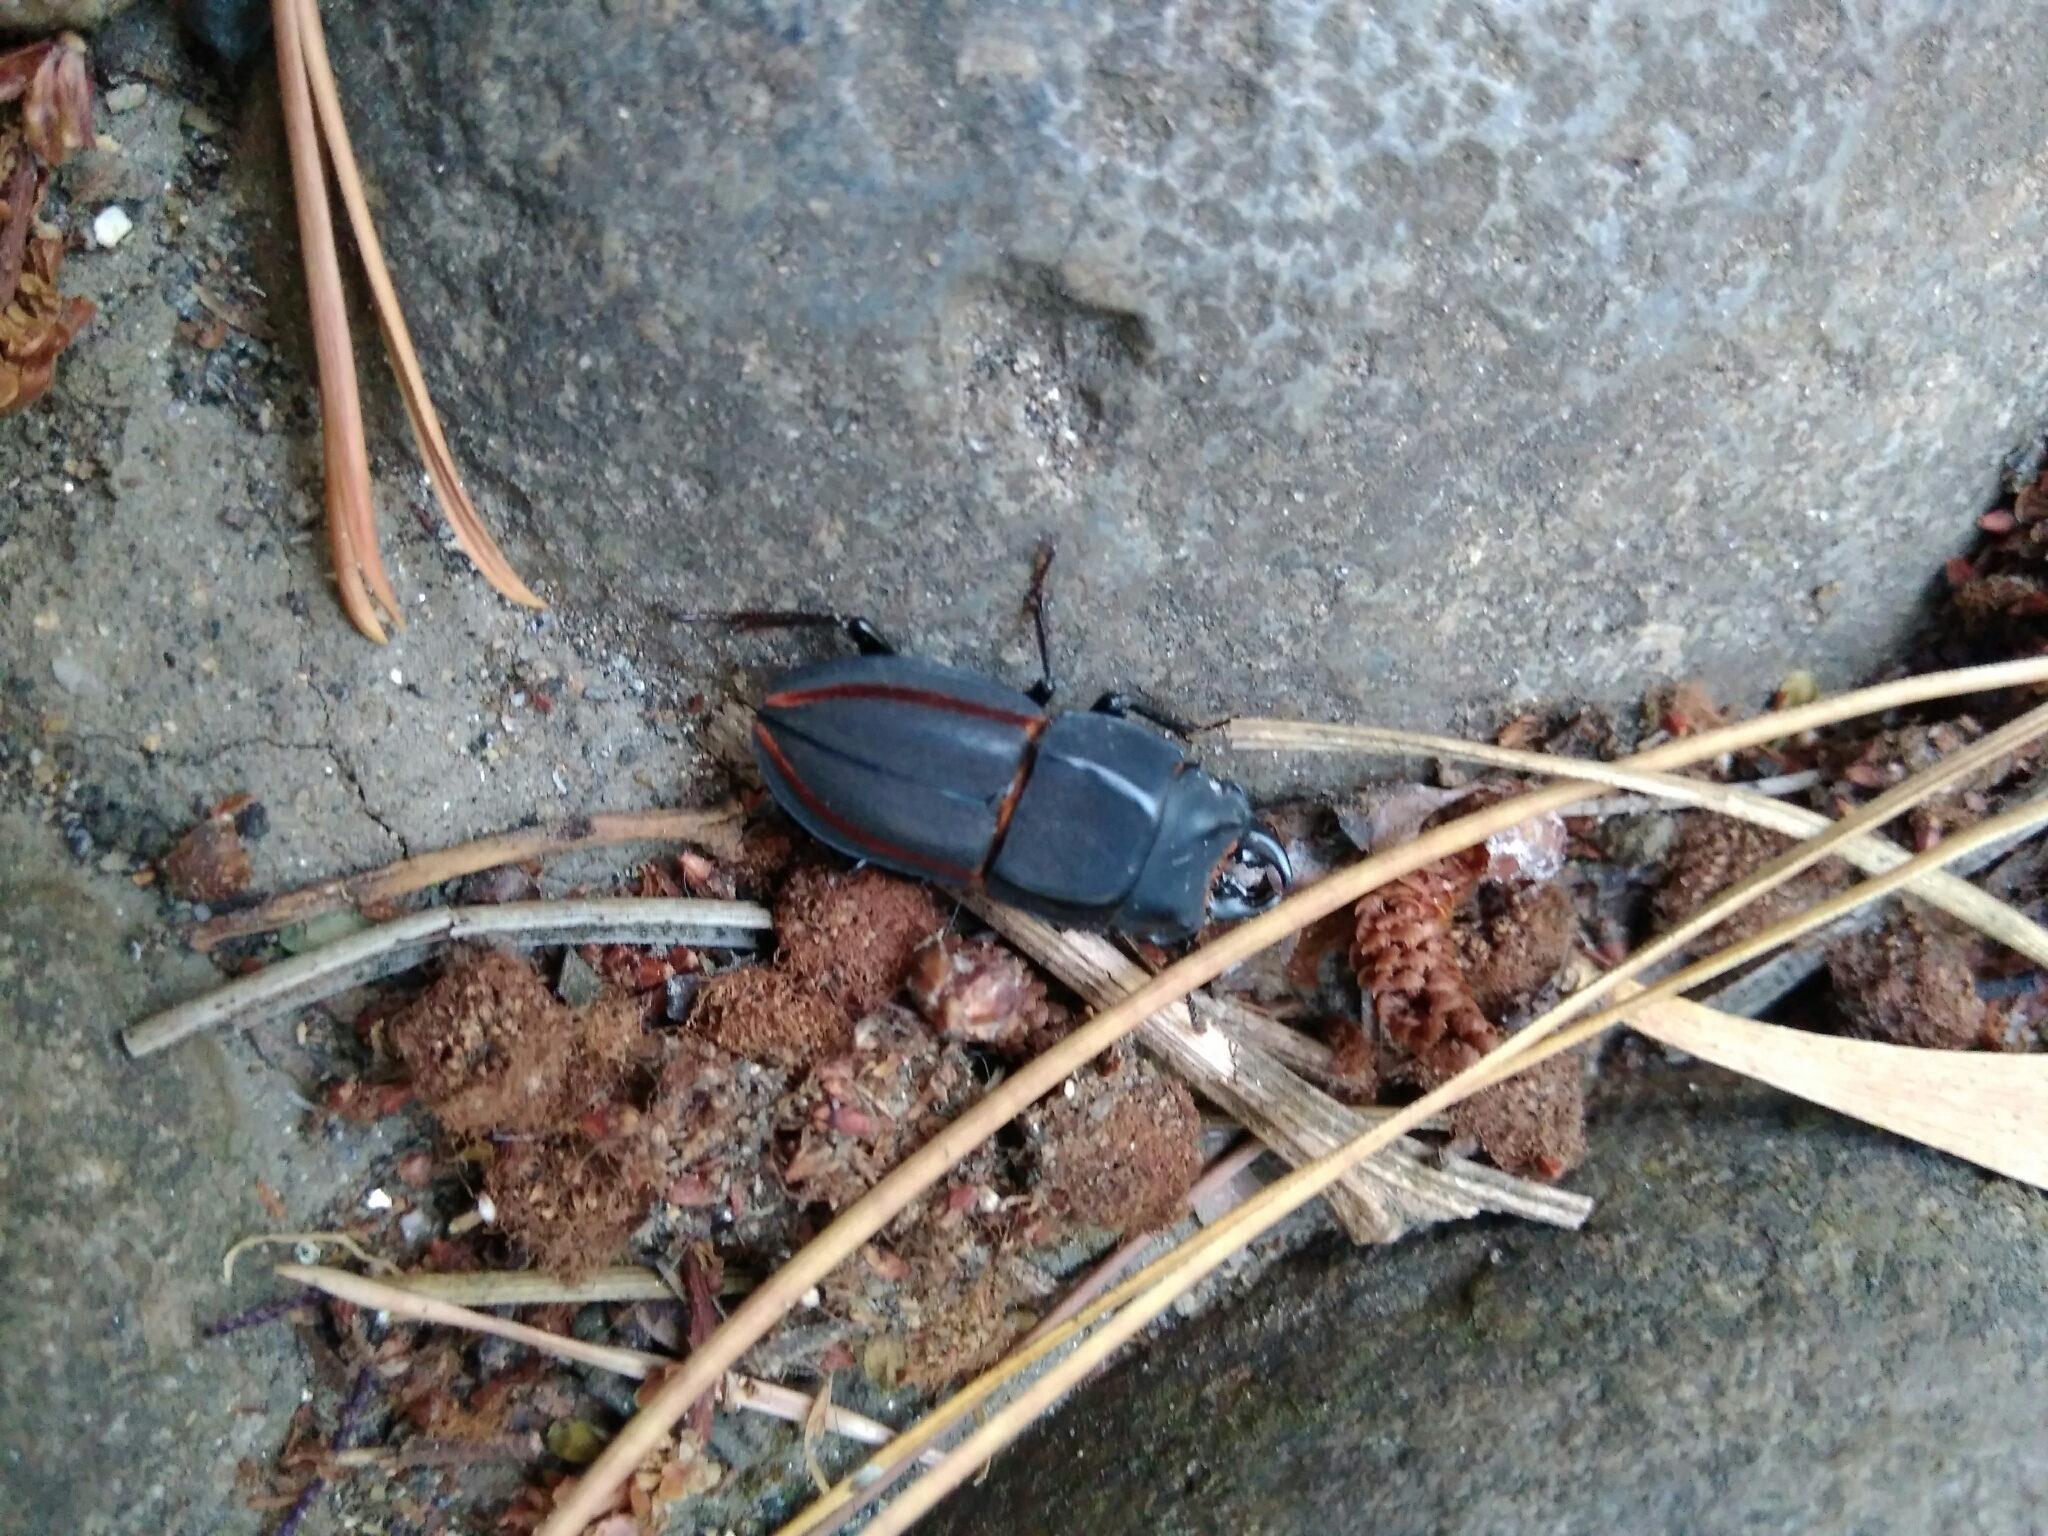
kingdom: Animalia
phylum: Arthropoda
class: Insecta
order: Coleoptera
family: Lucanidae
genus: Erichius
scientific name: Erichius vittatus
